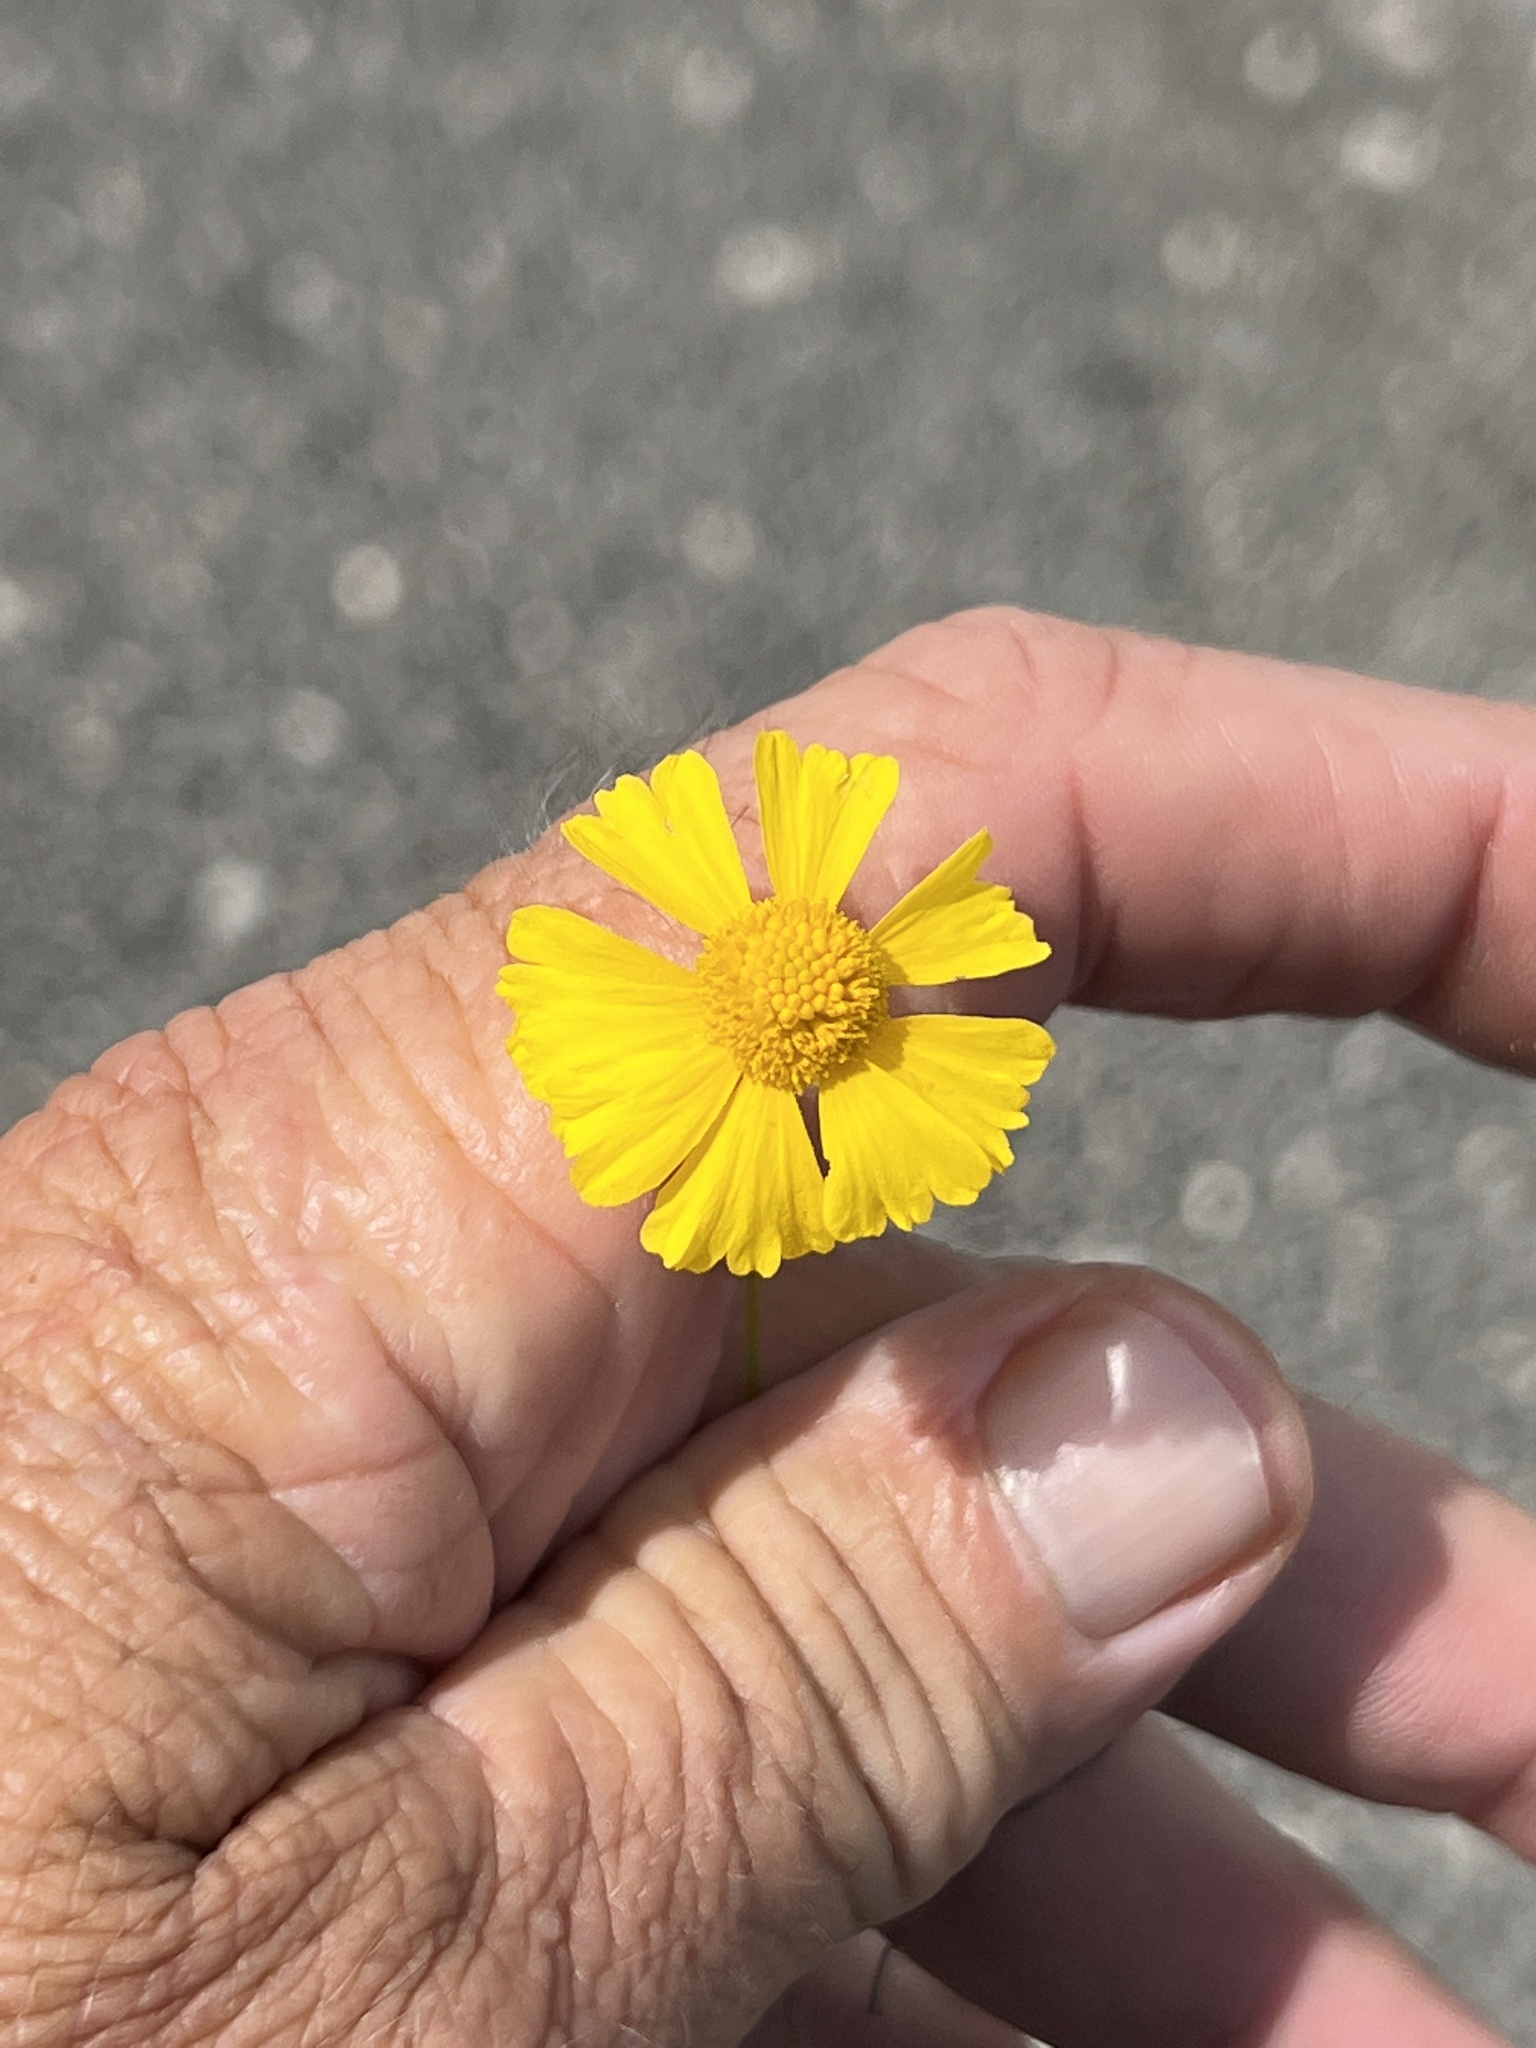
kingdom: Plantae
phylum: Tracheophyta
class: Magnoliopsida
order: Asterales
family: Asteraceae
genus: Helenium
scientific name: Helenium amarum
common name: Bitter sneezeweed
